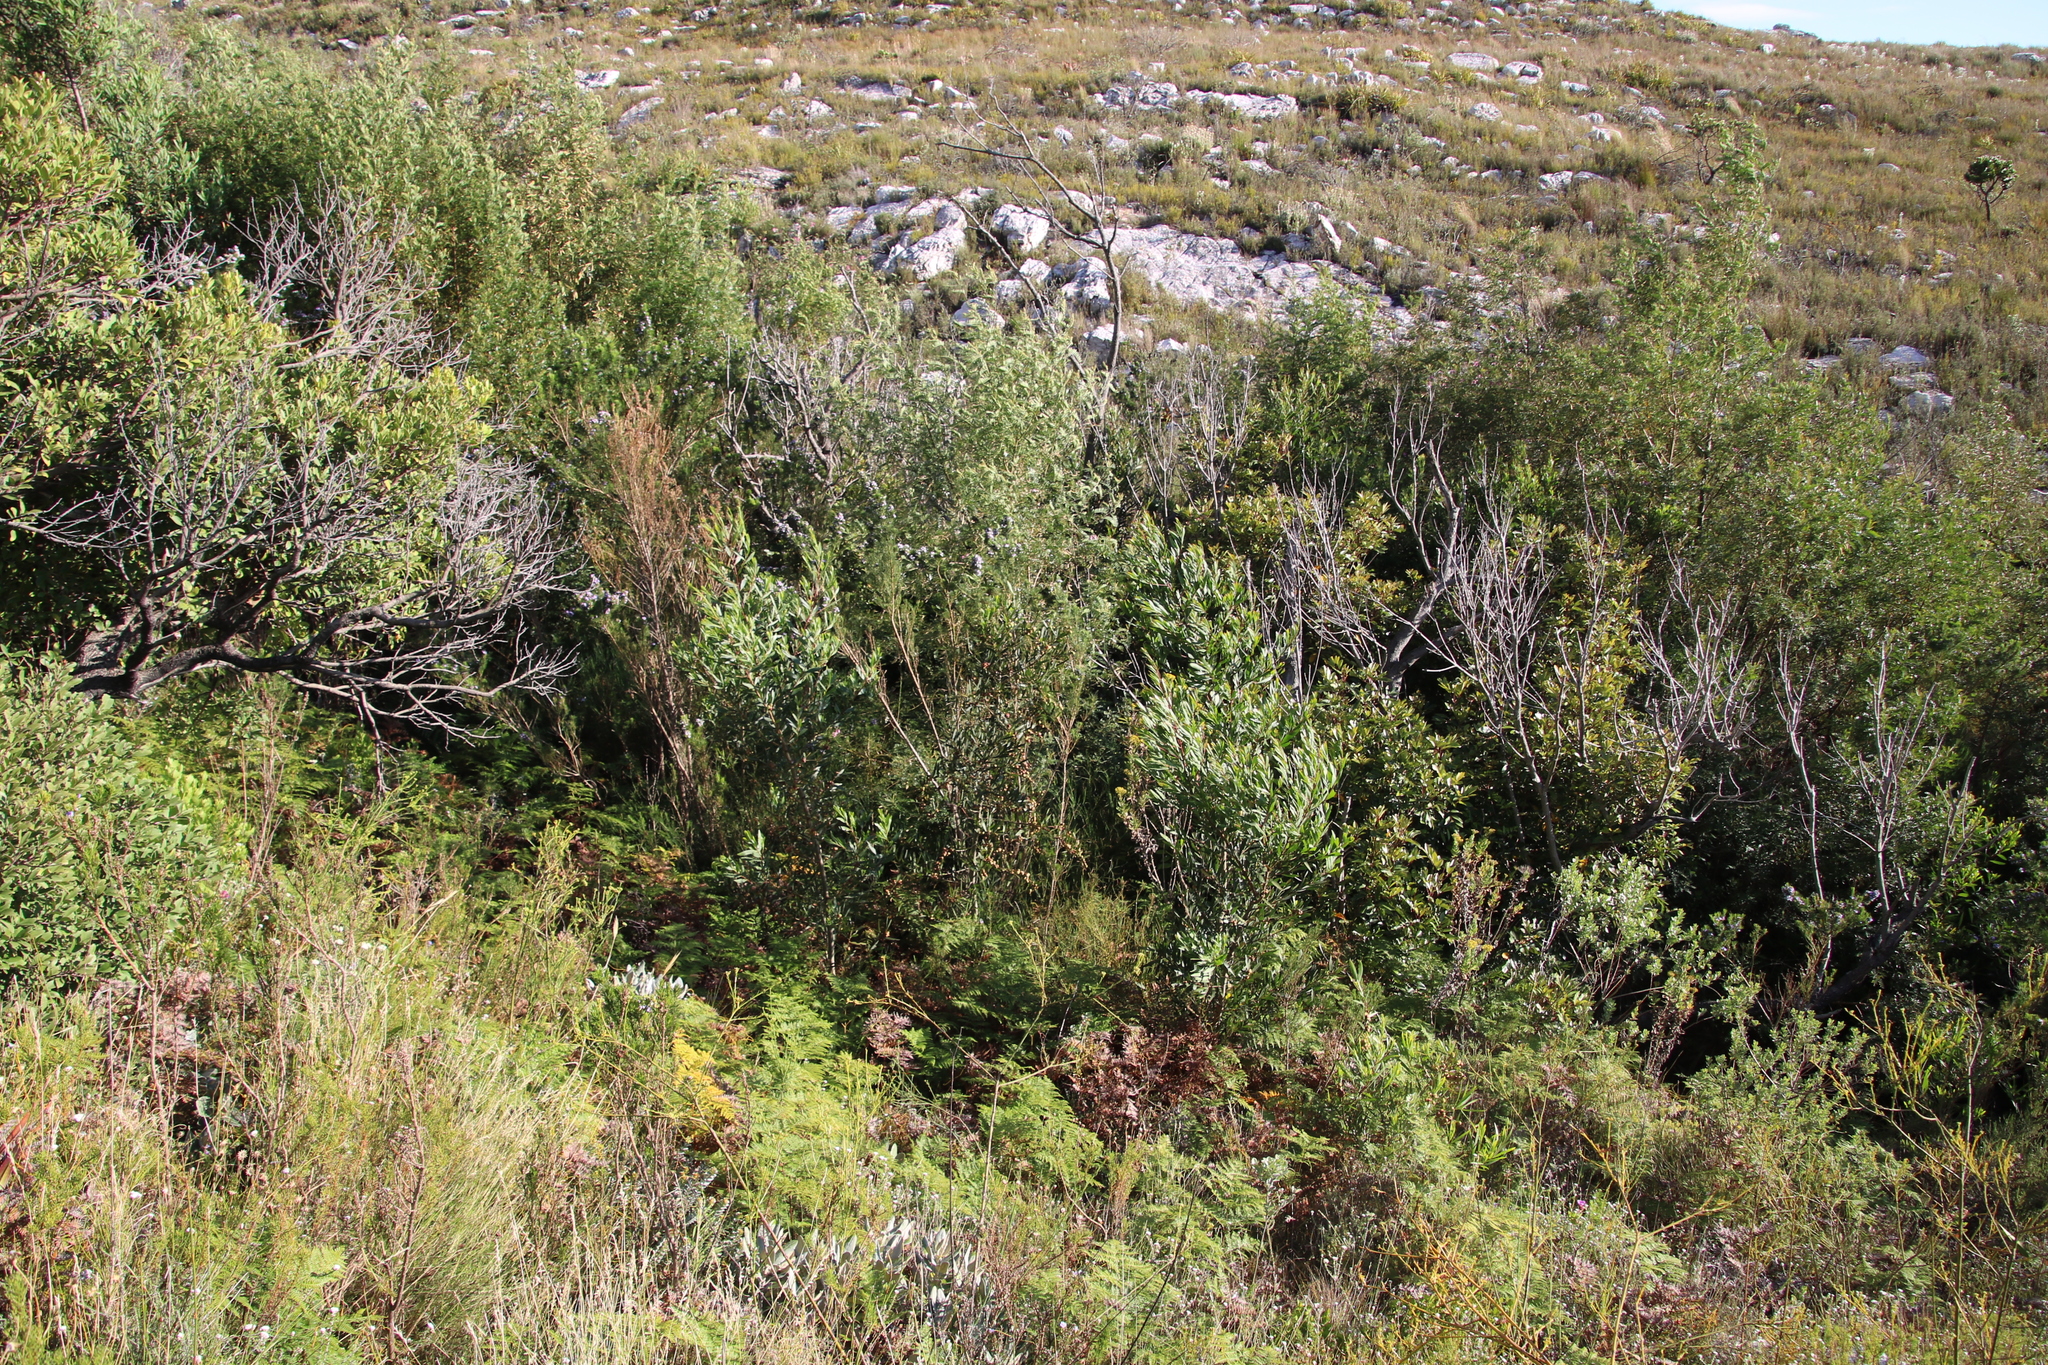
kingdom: Plantae
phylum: Tracheophyta
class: Magnoliopsida
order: Fabales
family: Fabaceae
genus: Acacia
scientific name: Acacia longifolia
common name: Sydney golden wattle
